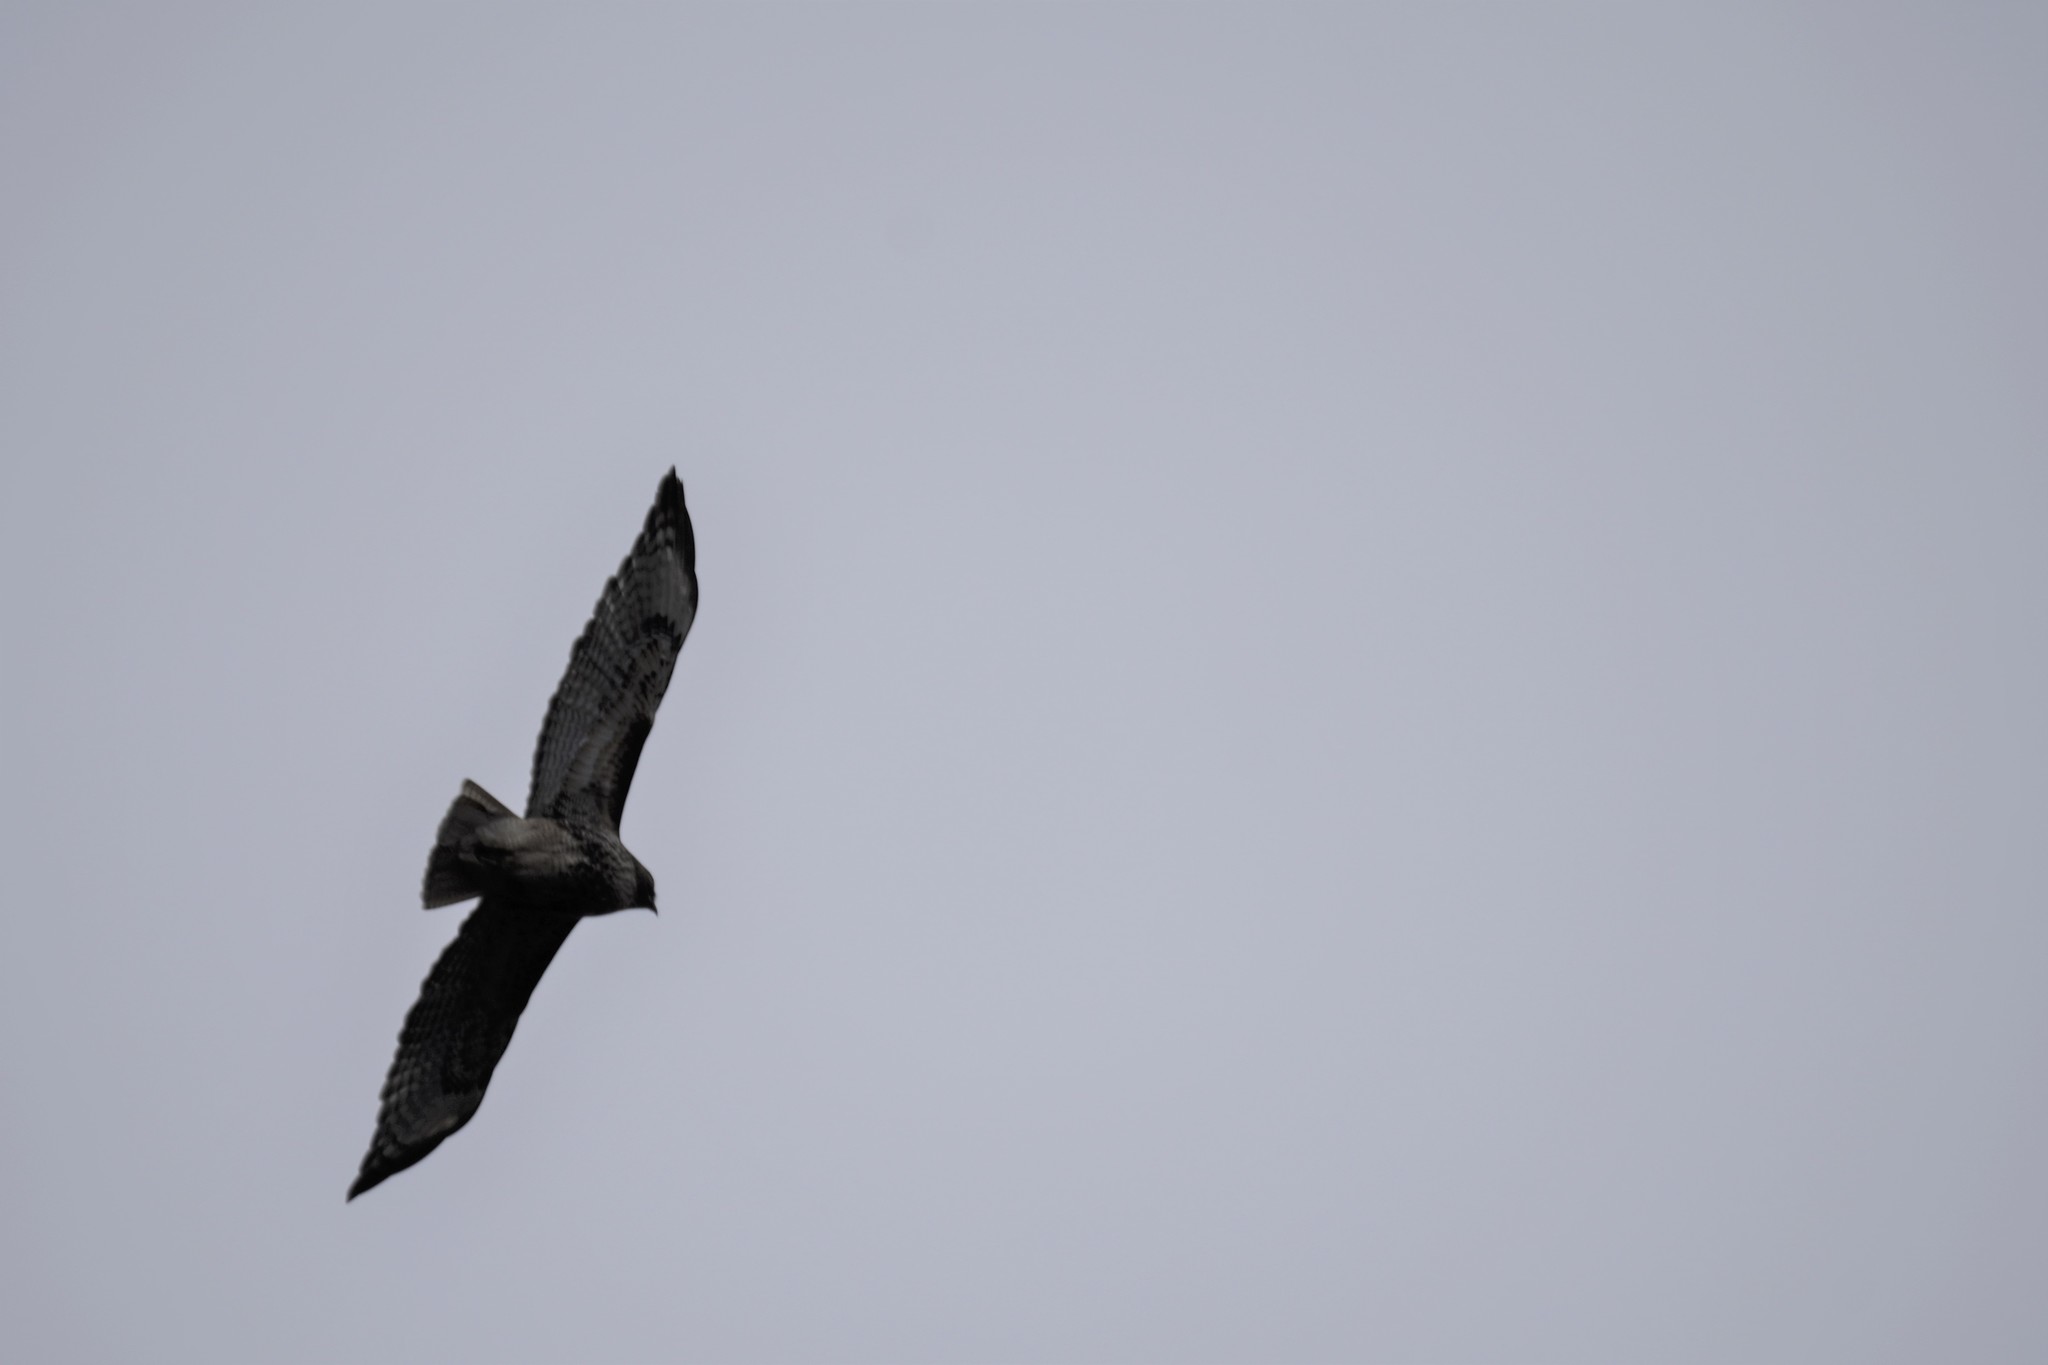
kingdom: Animalia
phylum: Chordata
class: Aves
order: Accipitriformes
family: Accipitridae
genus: Buteo
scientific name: Buteo jamaicensis
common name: Red-tailed hawk
